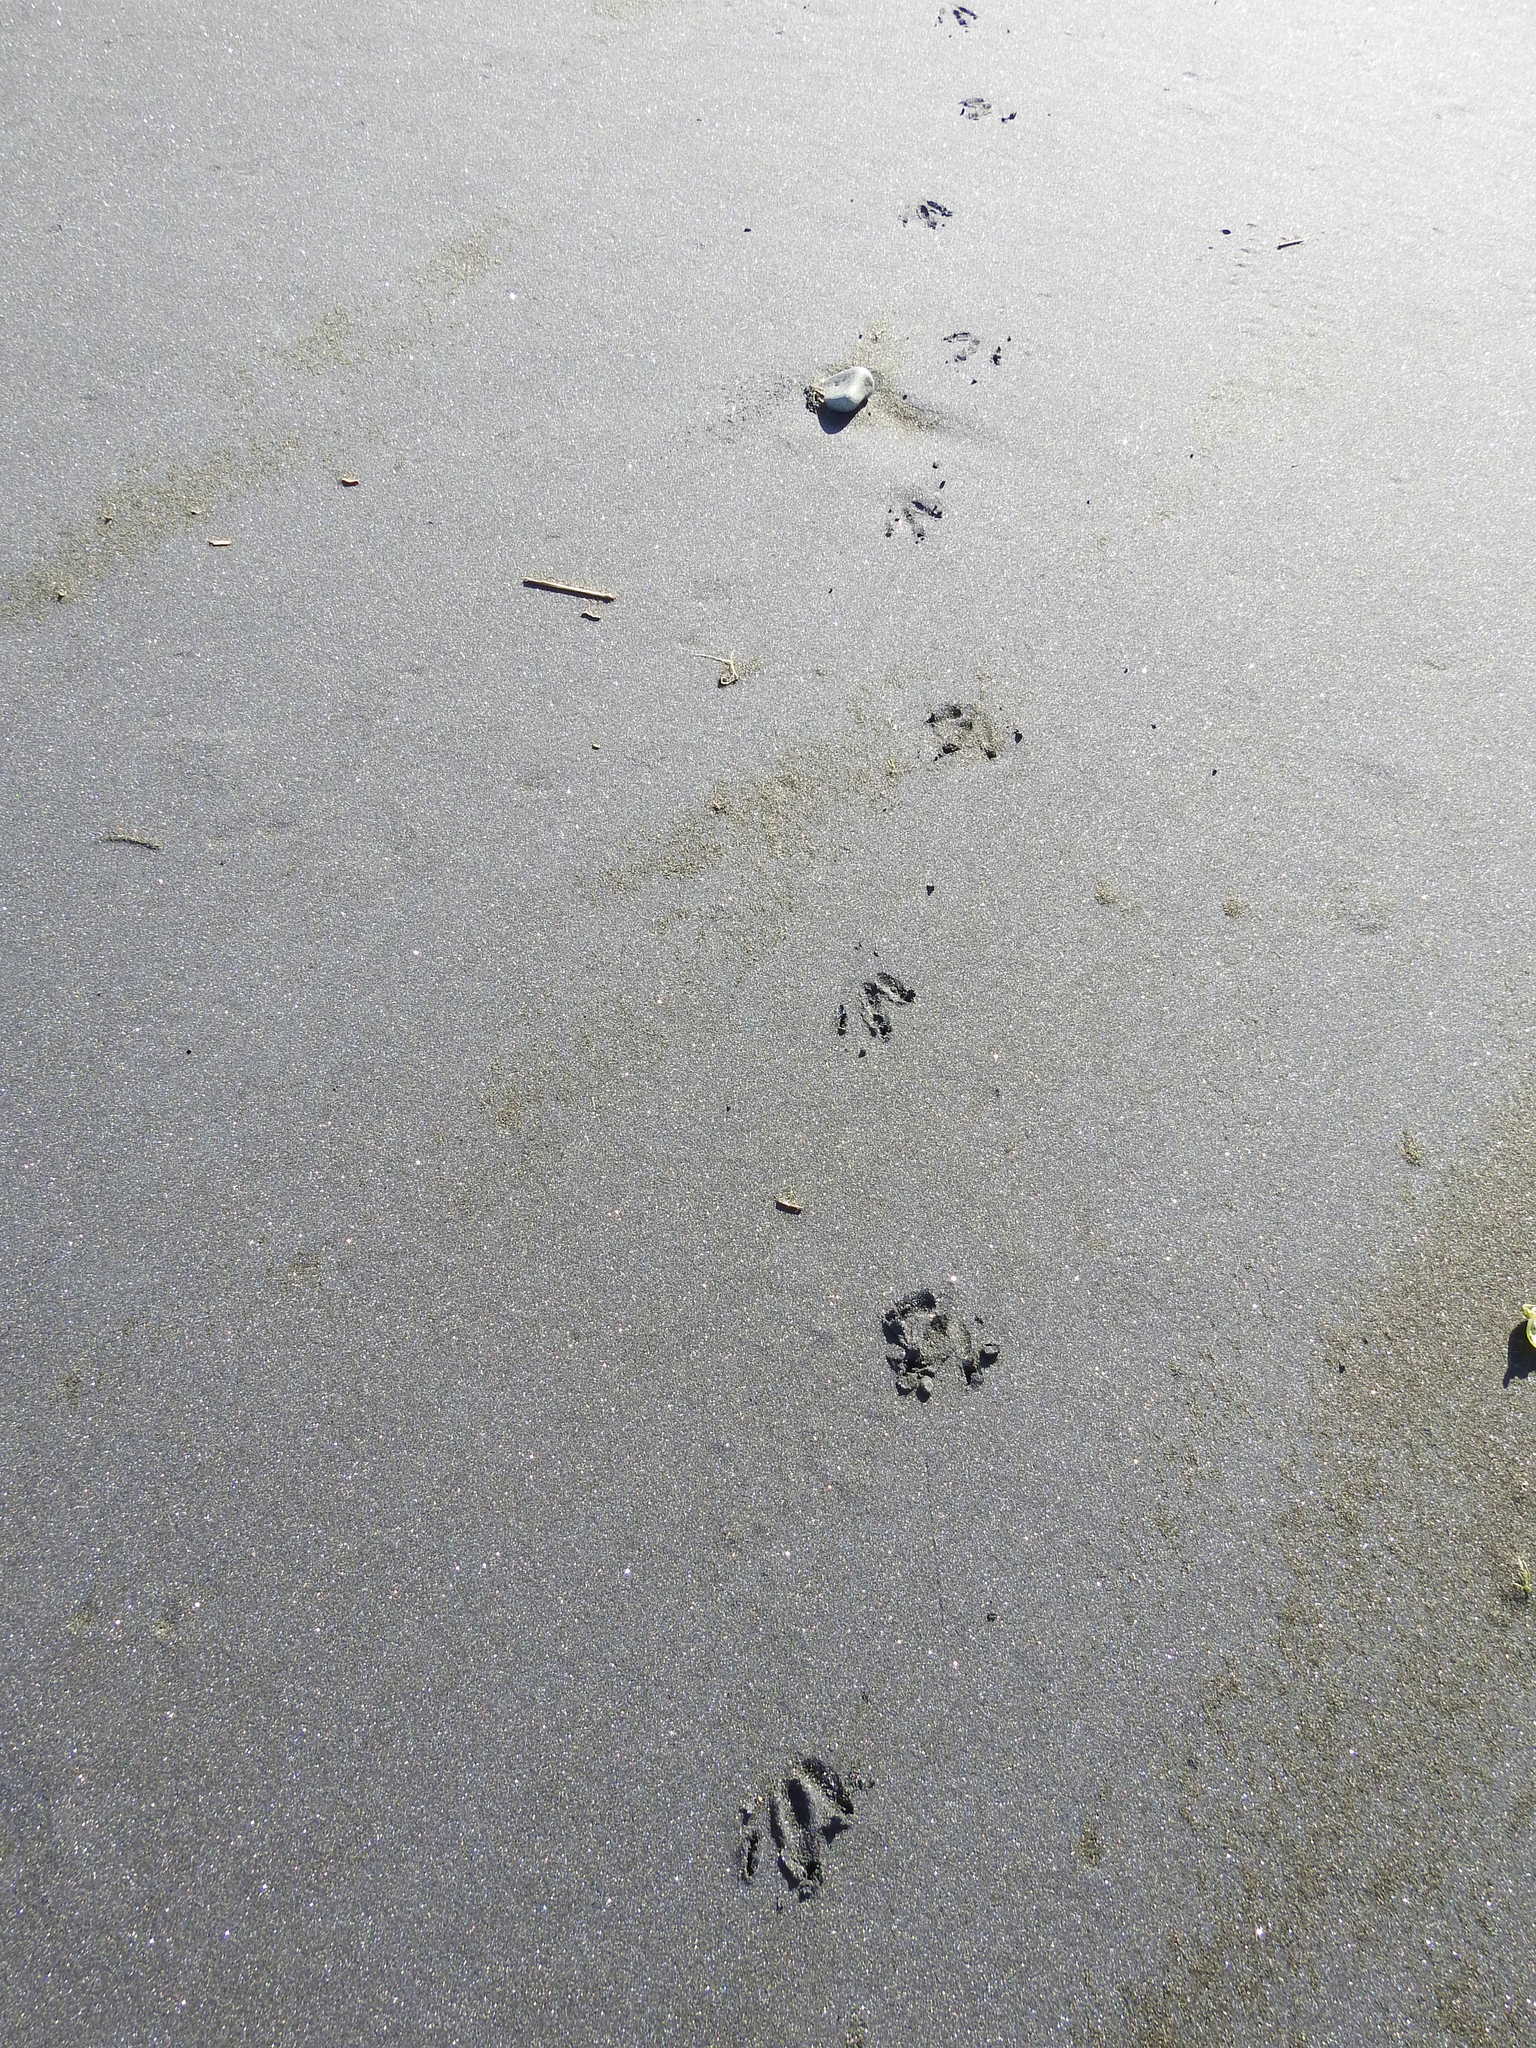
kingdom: Animalia
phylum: Chordata
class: Aves
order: Sphenisciformes
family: Spheniscidae
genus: Eudyptula
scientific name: Eudyptula minor
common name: Little penguin
